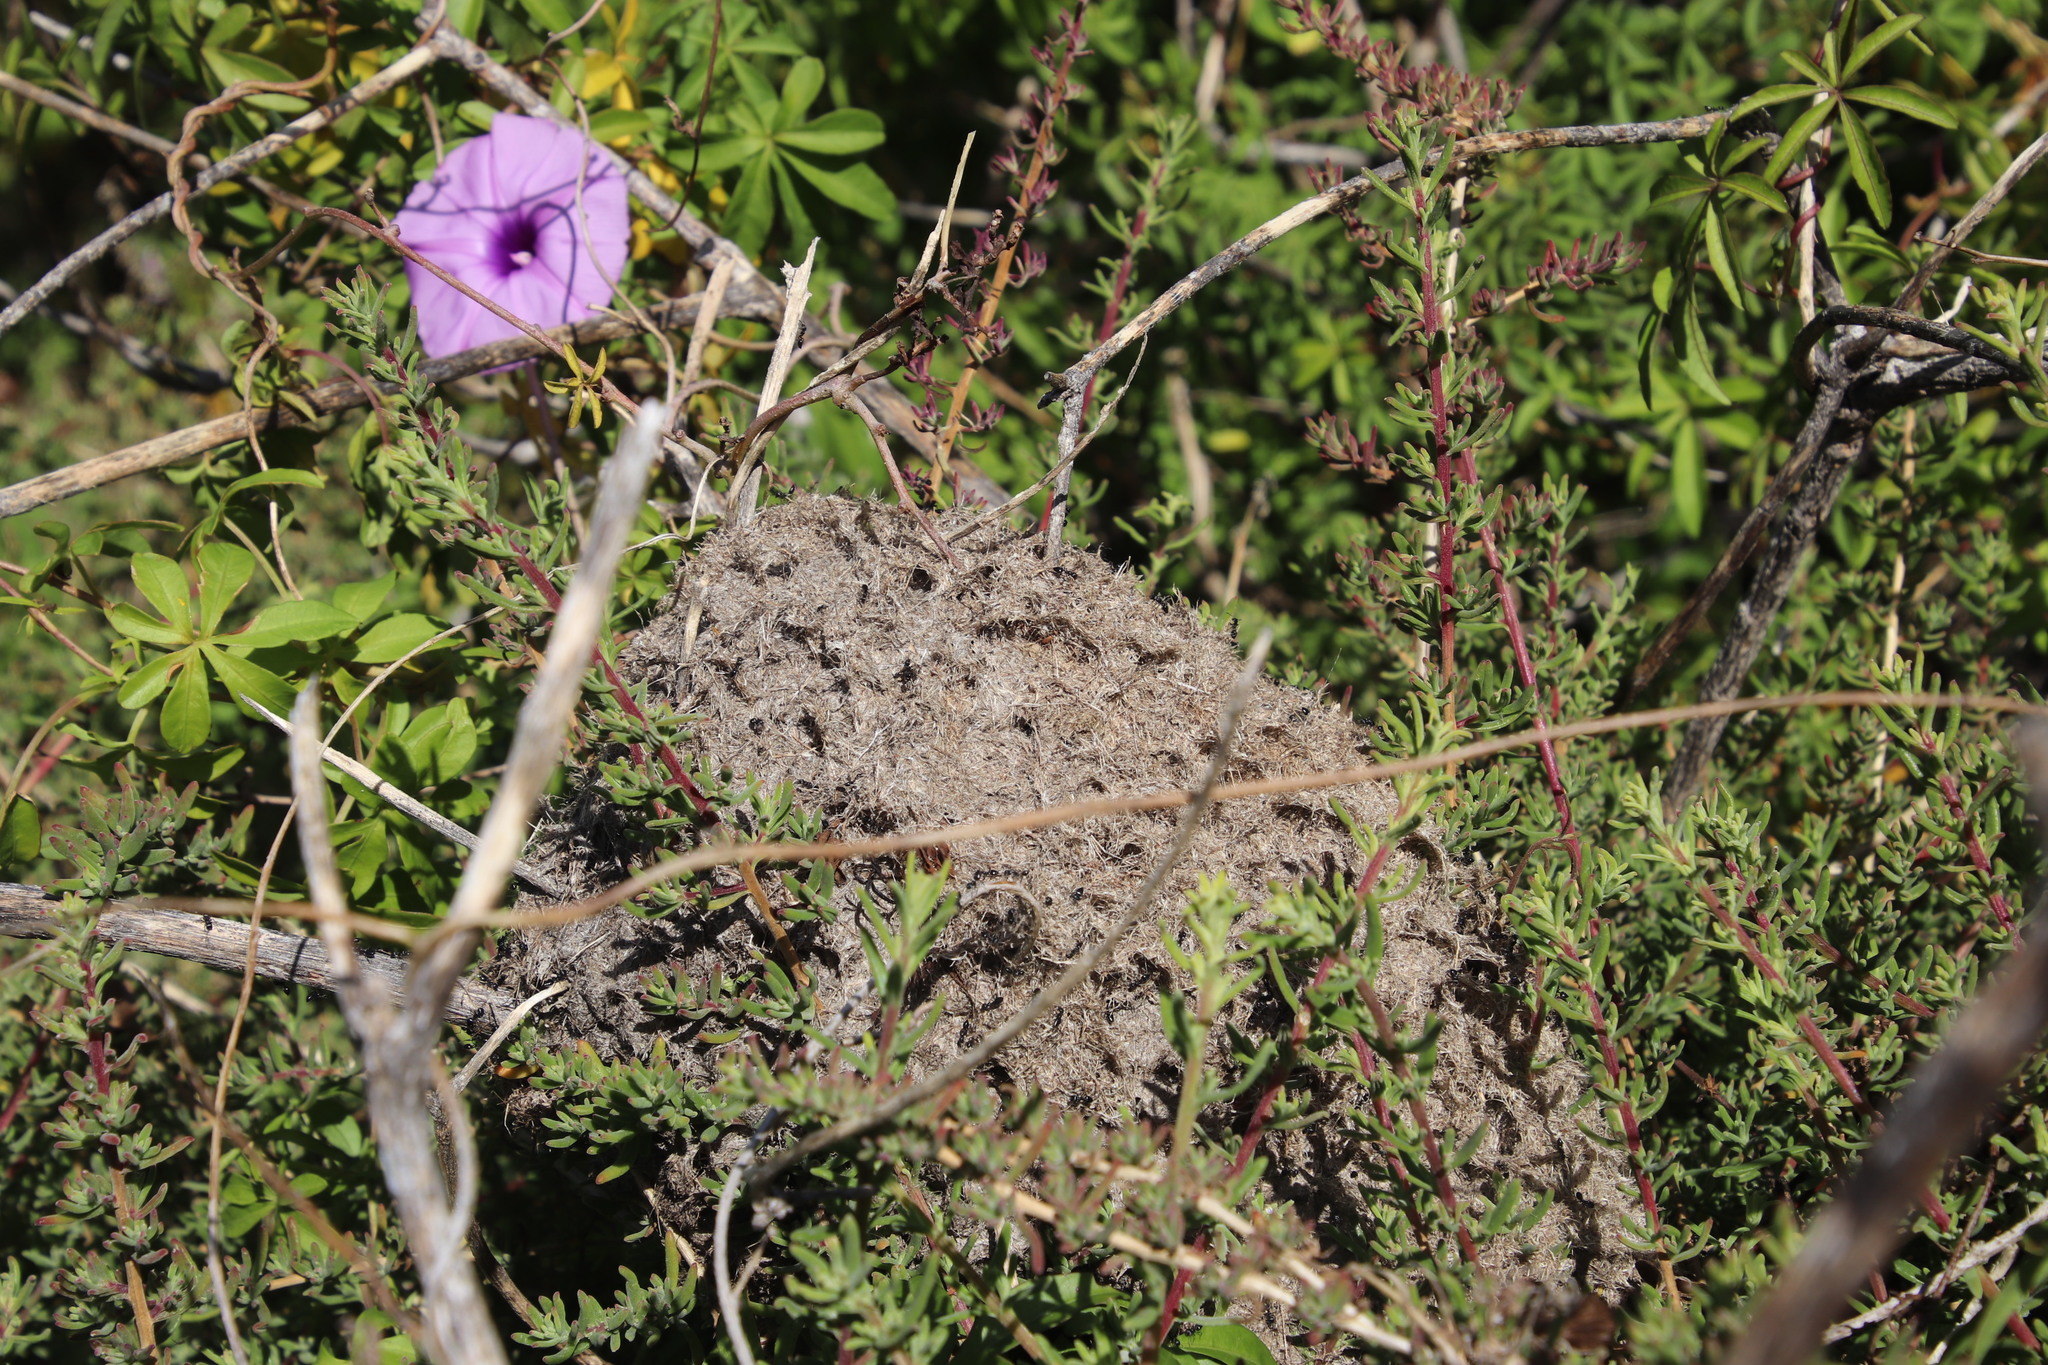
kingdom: Animalia
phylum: Arthropoda
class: Insecta
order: Hymenoptera
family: Formicidae
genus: Crematogaster
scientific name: Crematogaster peringueyi
